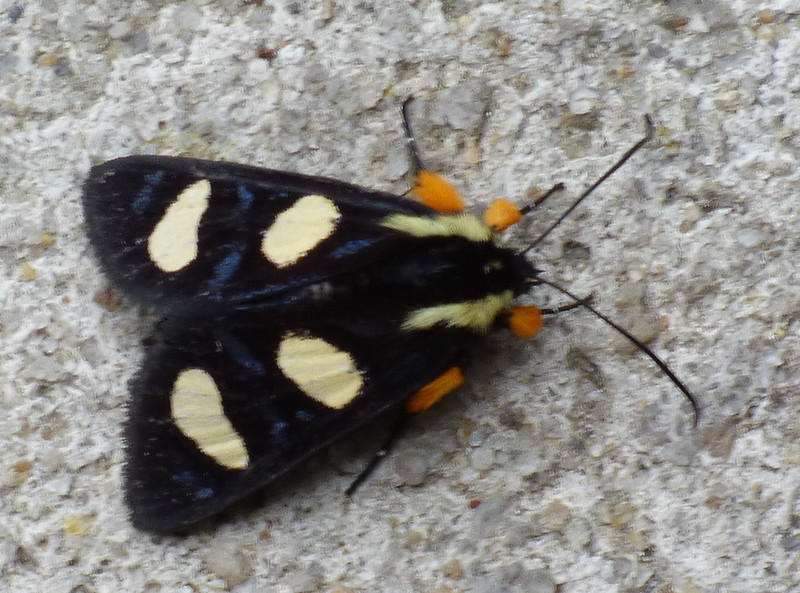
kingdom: Animalia
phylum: Arthropoda
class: Insecta
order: Lepidoptera
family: Noctuidae
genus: Alypia
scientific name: Alypia wittfeldii
